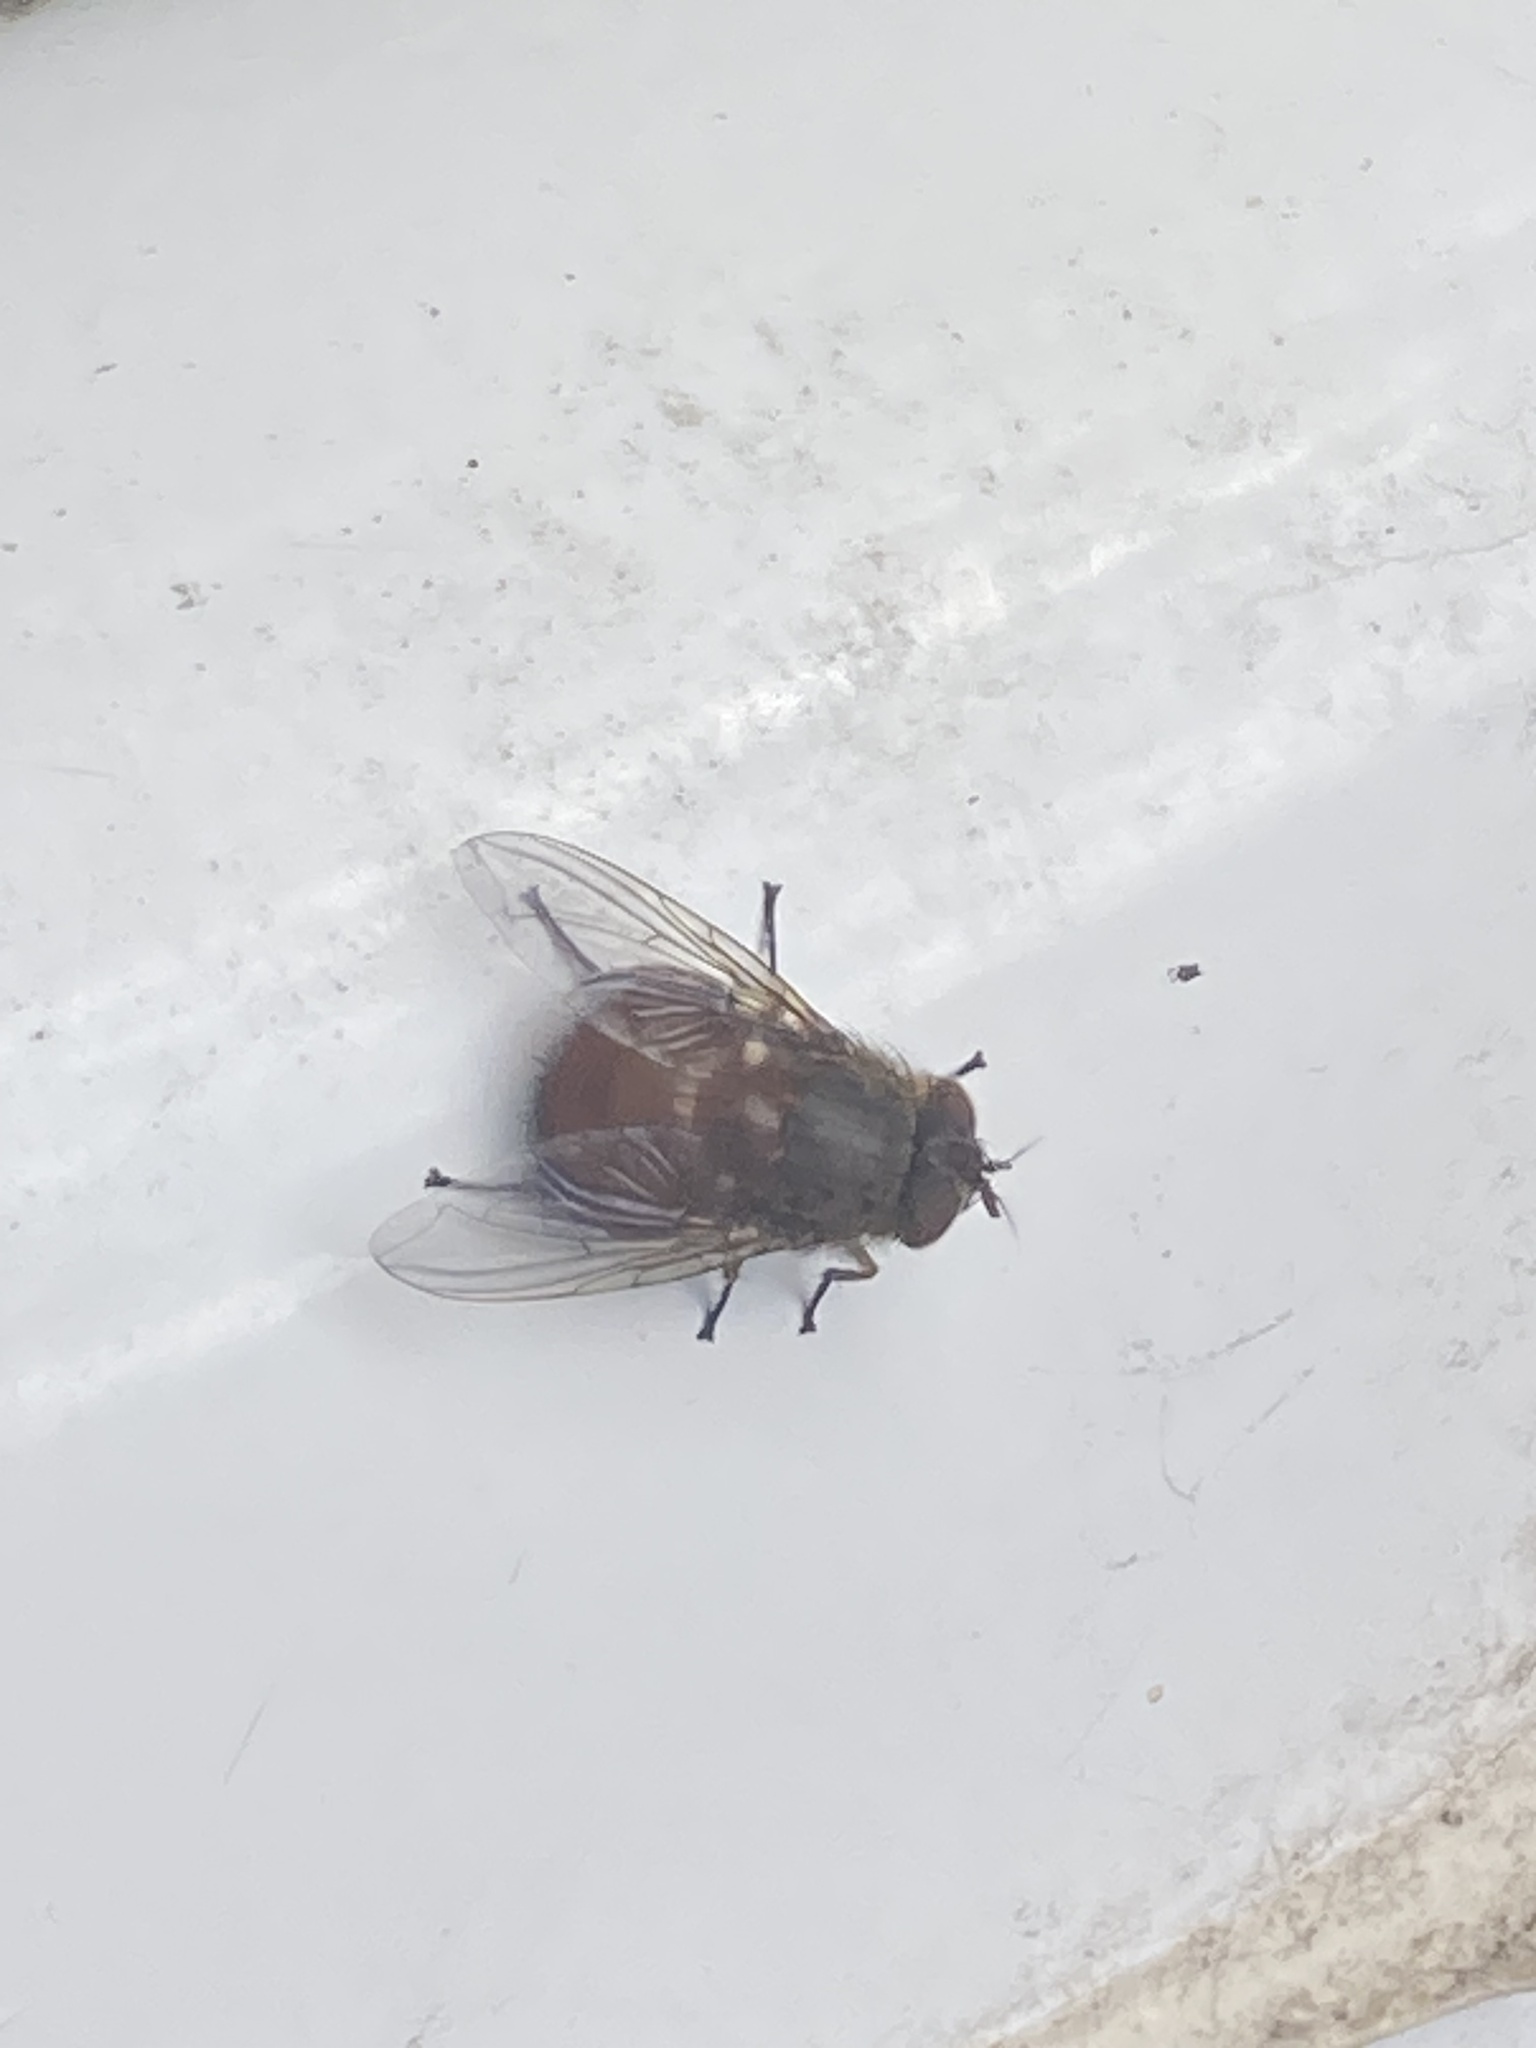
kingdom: Animalia
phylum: Arthropoda
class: Insecta
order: Diptera
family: Calliphoridae
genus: Calliphora
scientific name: Calliphora ochracea
